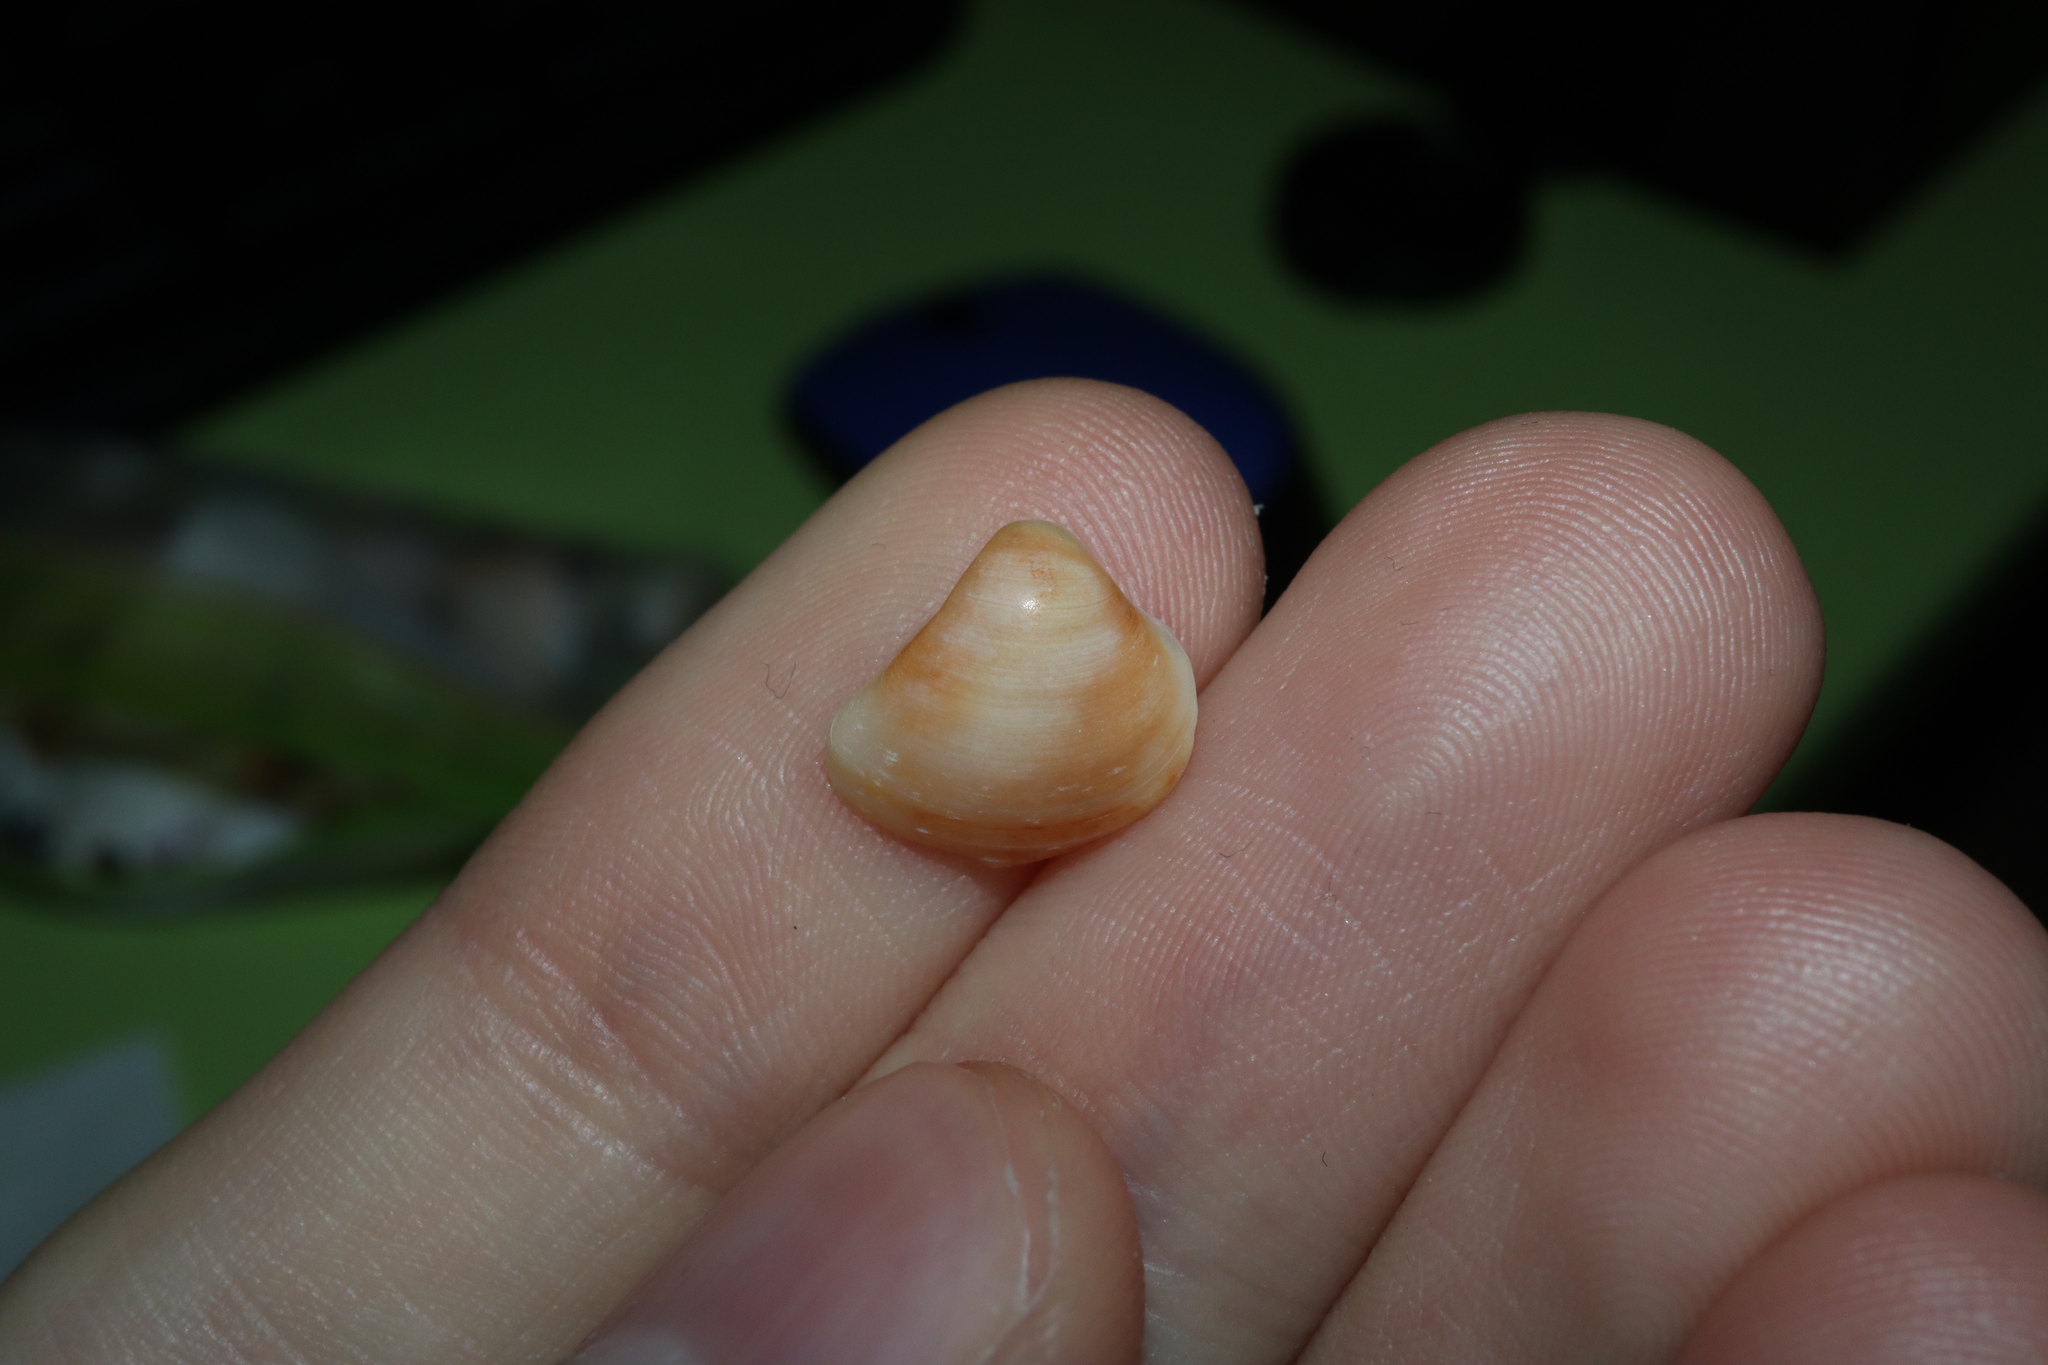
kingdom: Animalia
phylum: Mollusca
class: Bivalvia
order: Venerida
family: Mactridae
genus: Spisula
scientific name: Spisula trigonella
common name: Trigonal mactra
